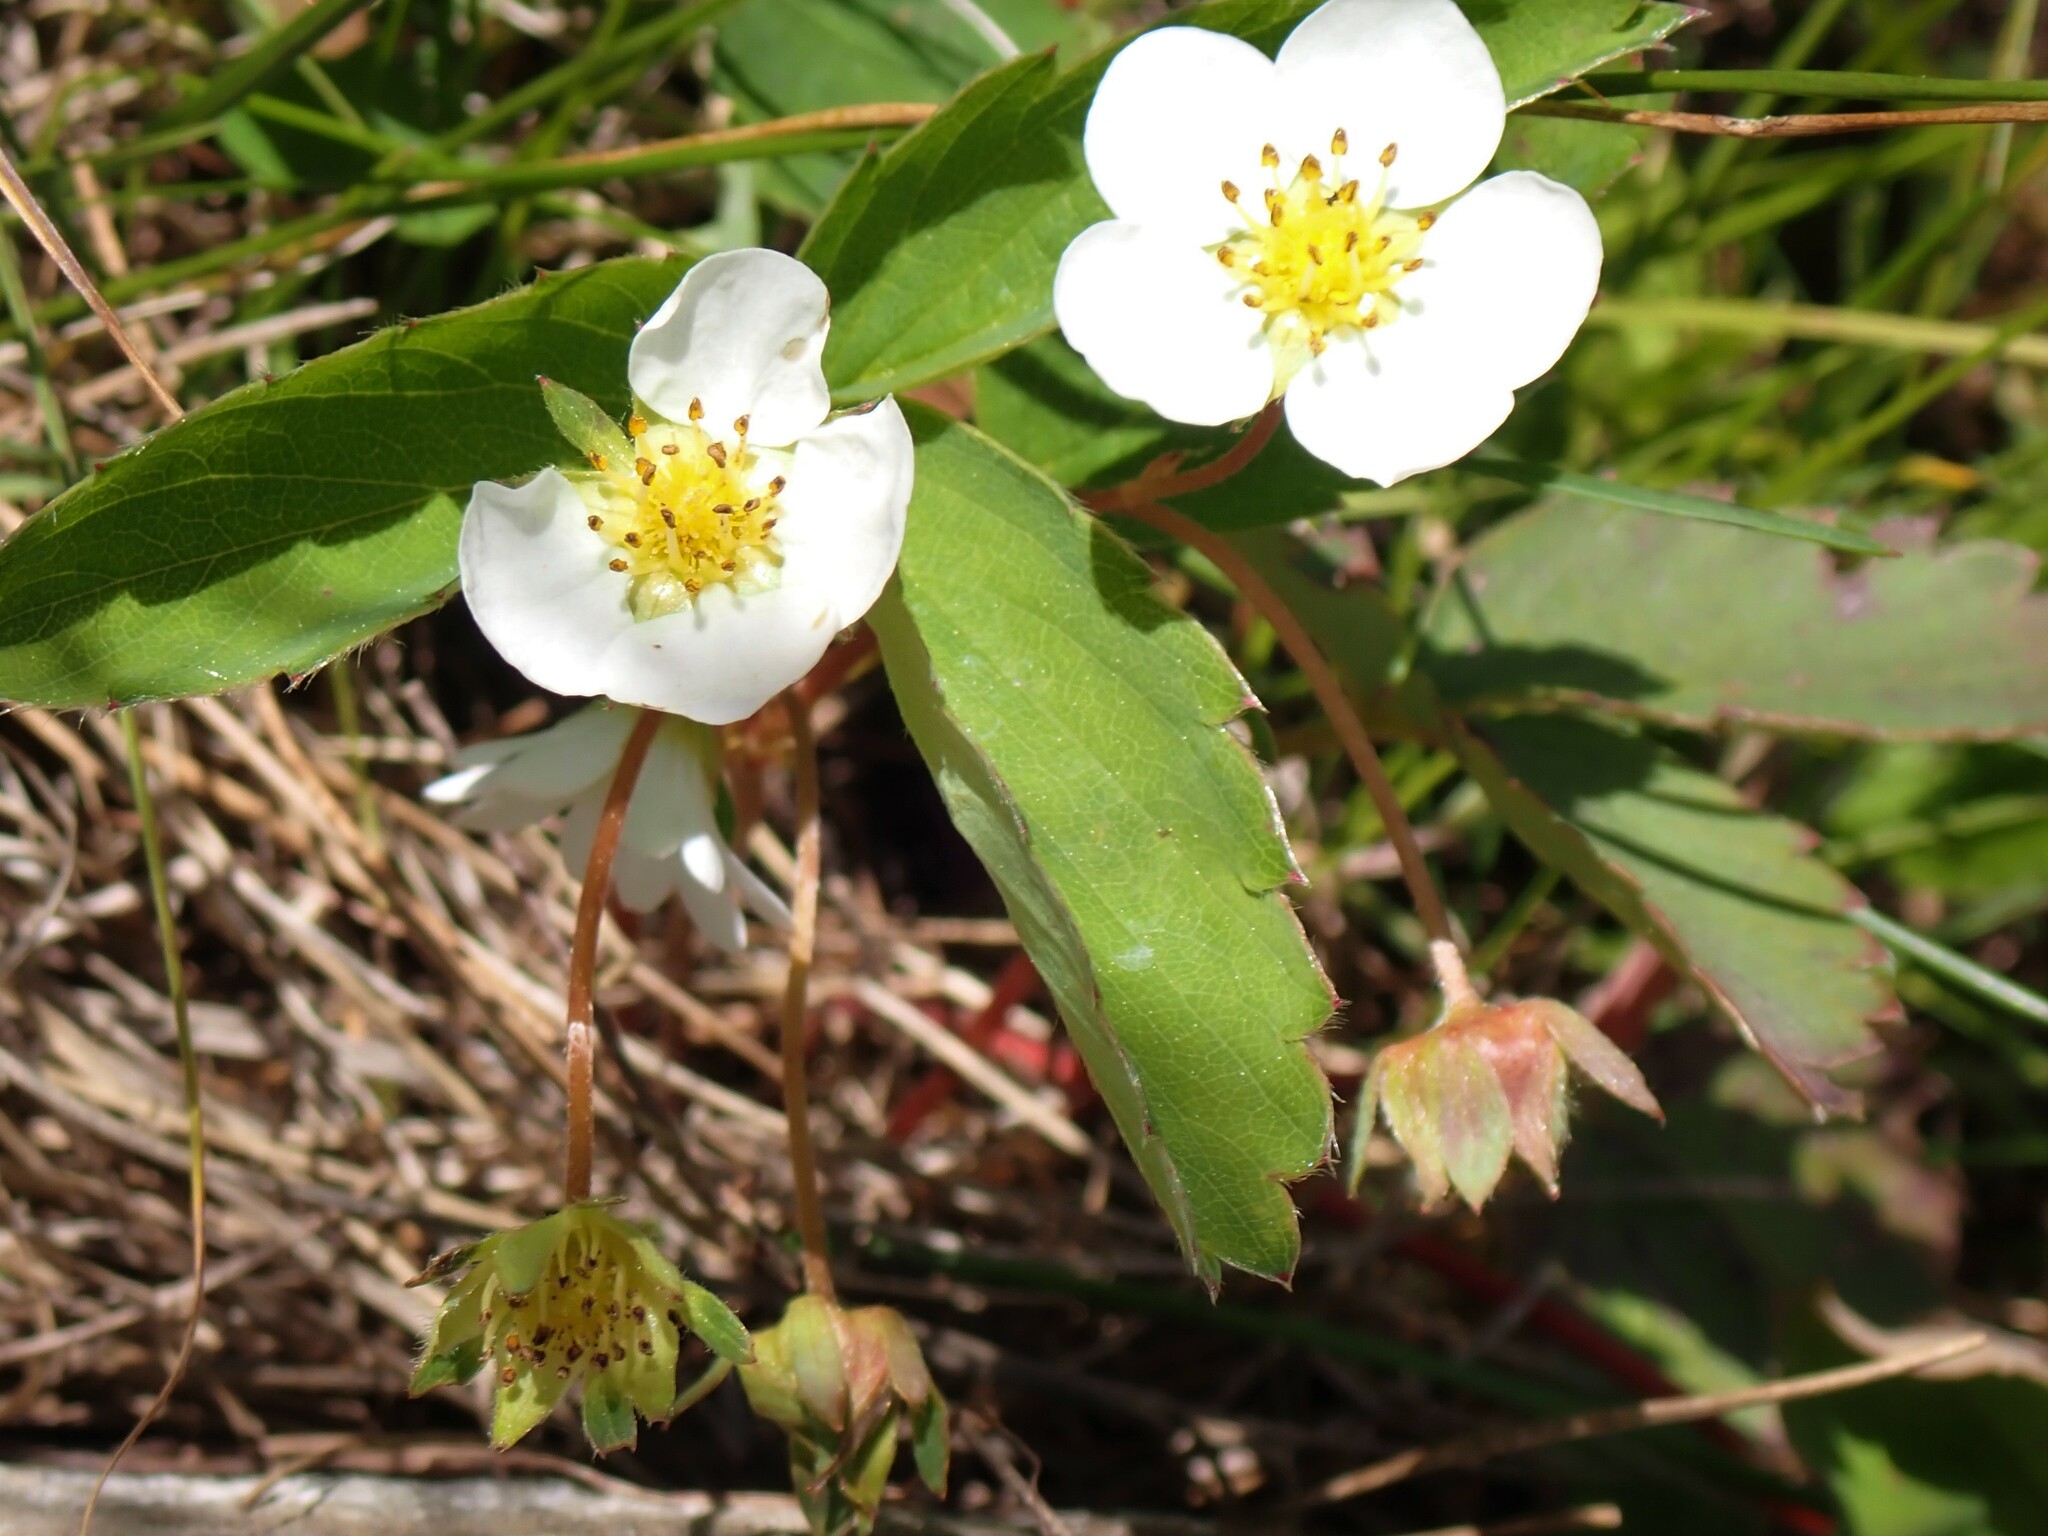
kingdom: Plantae
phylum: Tracheophyta
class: Magnoliopsida
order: Rosales
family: Rosaceae
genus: Fragaria
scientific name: Fragaria virginiana
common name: Thickleaved wild strawberry
